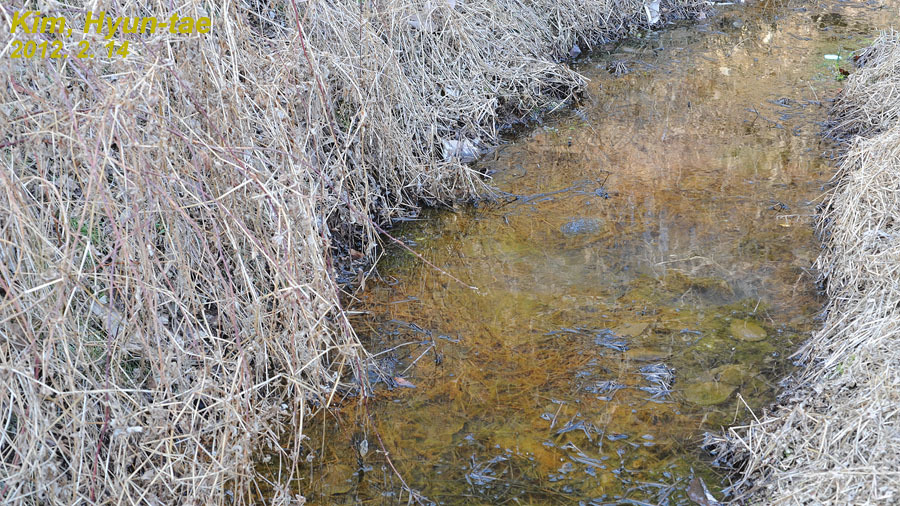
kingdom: Animalia
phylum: Chordata
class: Amphibia
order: Anura
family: Ranidae
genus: Rana
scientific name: Rana uenoi
